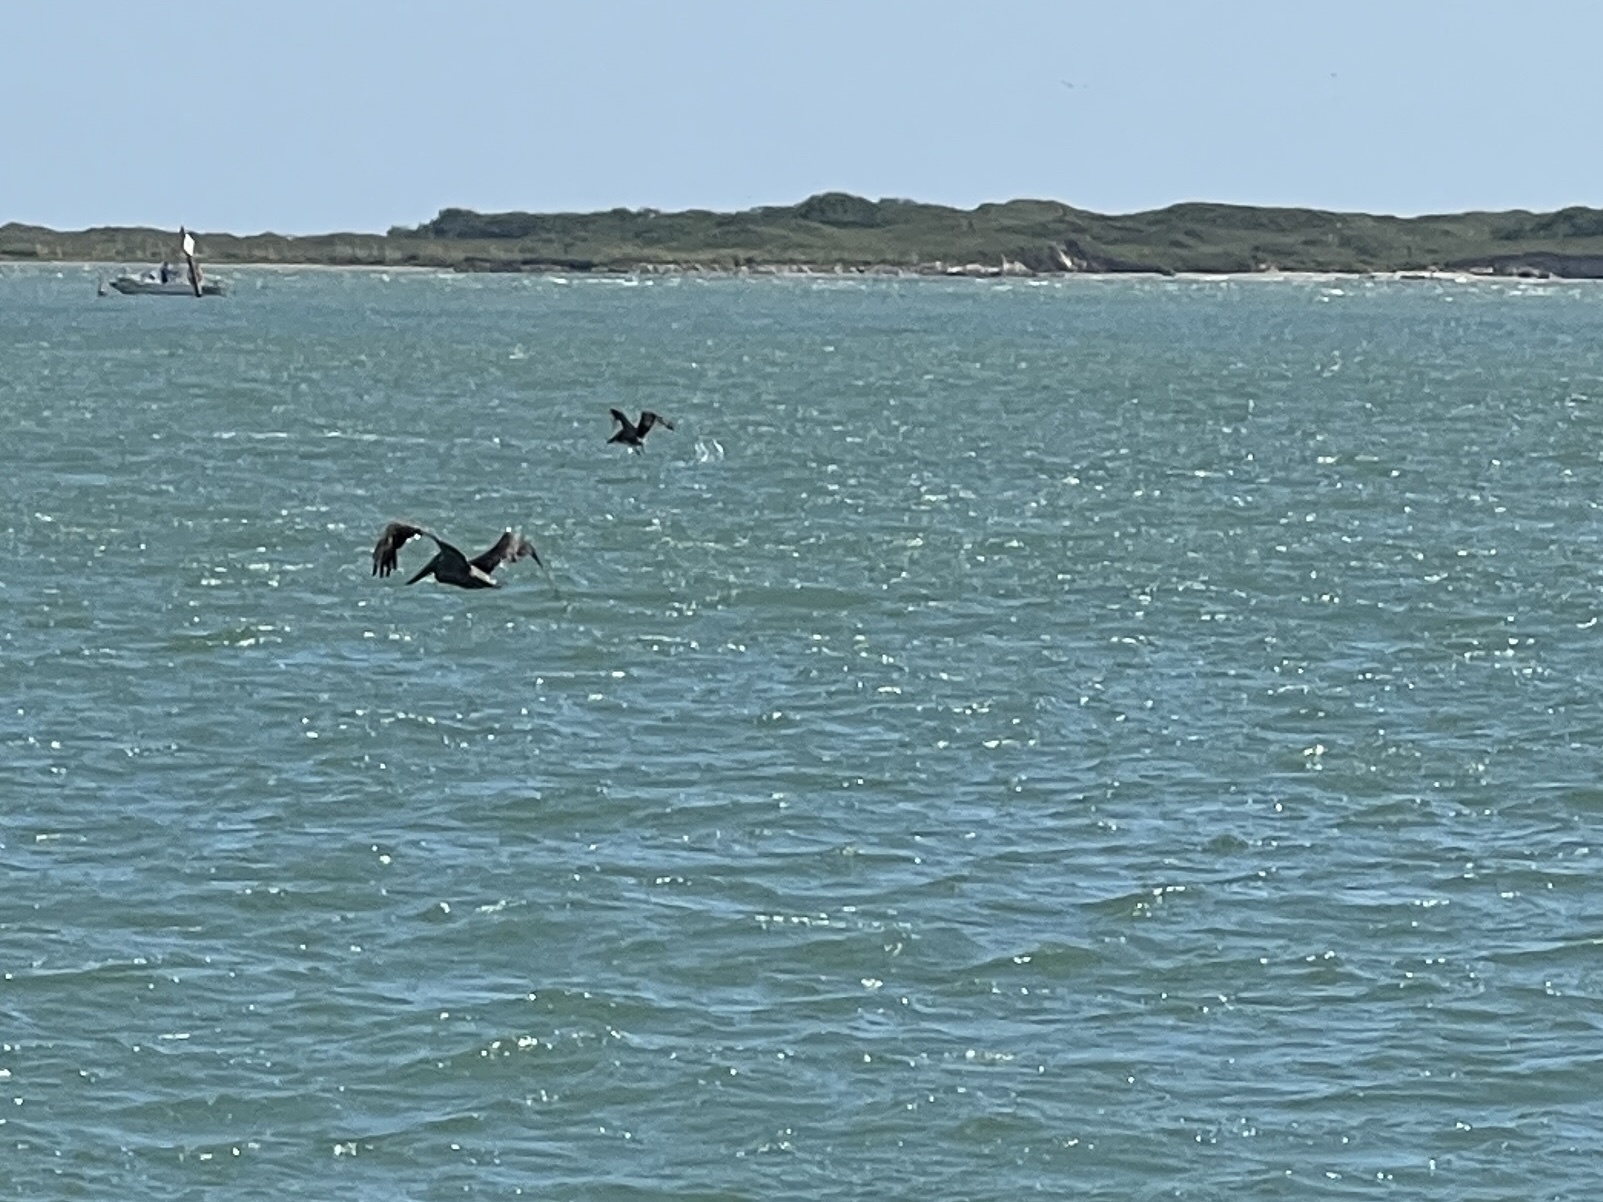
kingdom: Animalia
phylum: Chordata
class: Aves
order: Pelecaniformes
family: Pelecanidae
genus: Pelecanus
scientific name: Pelecanus occidentalis
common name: Brown pelican
